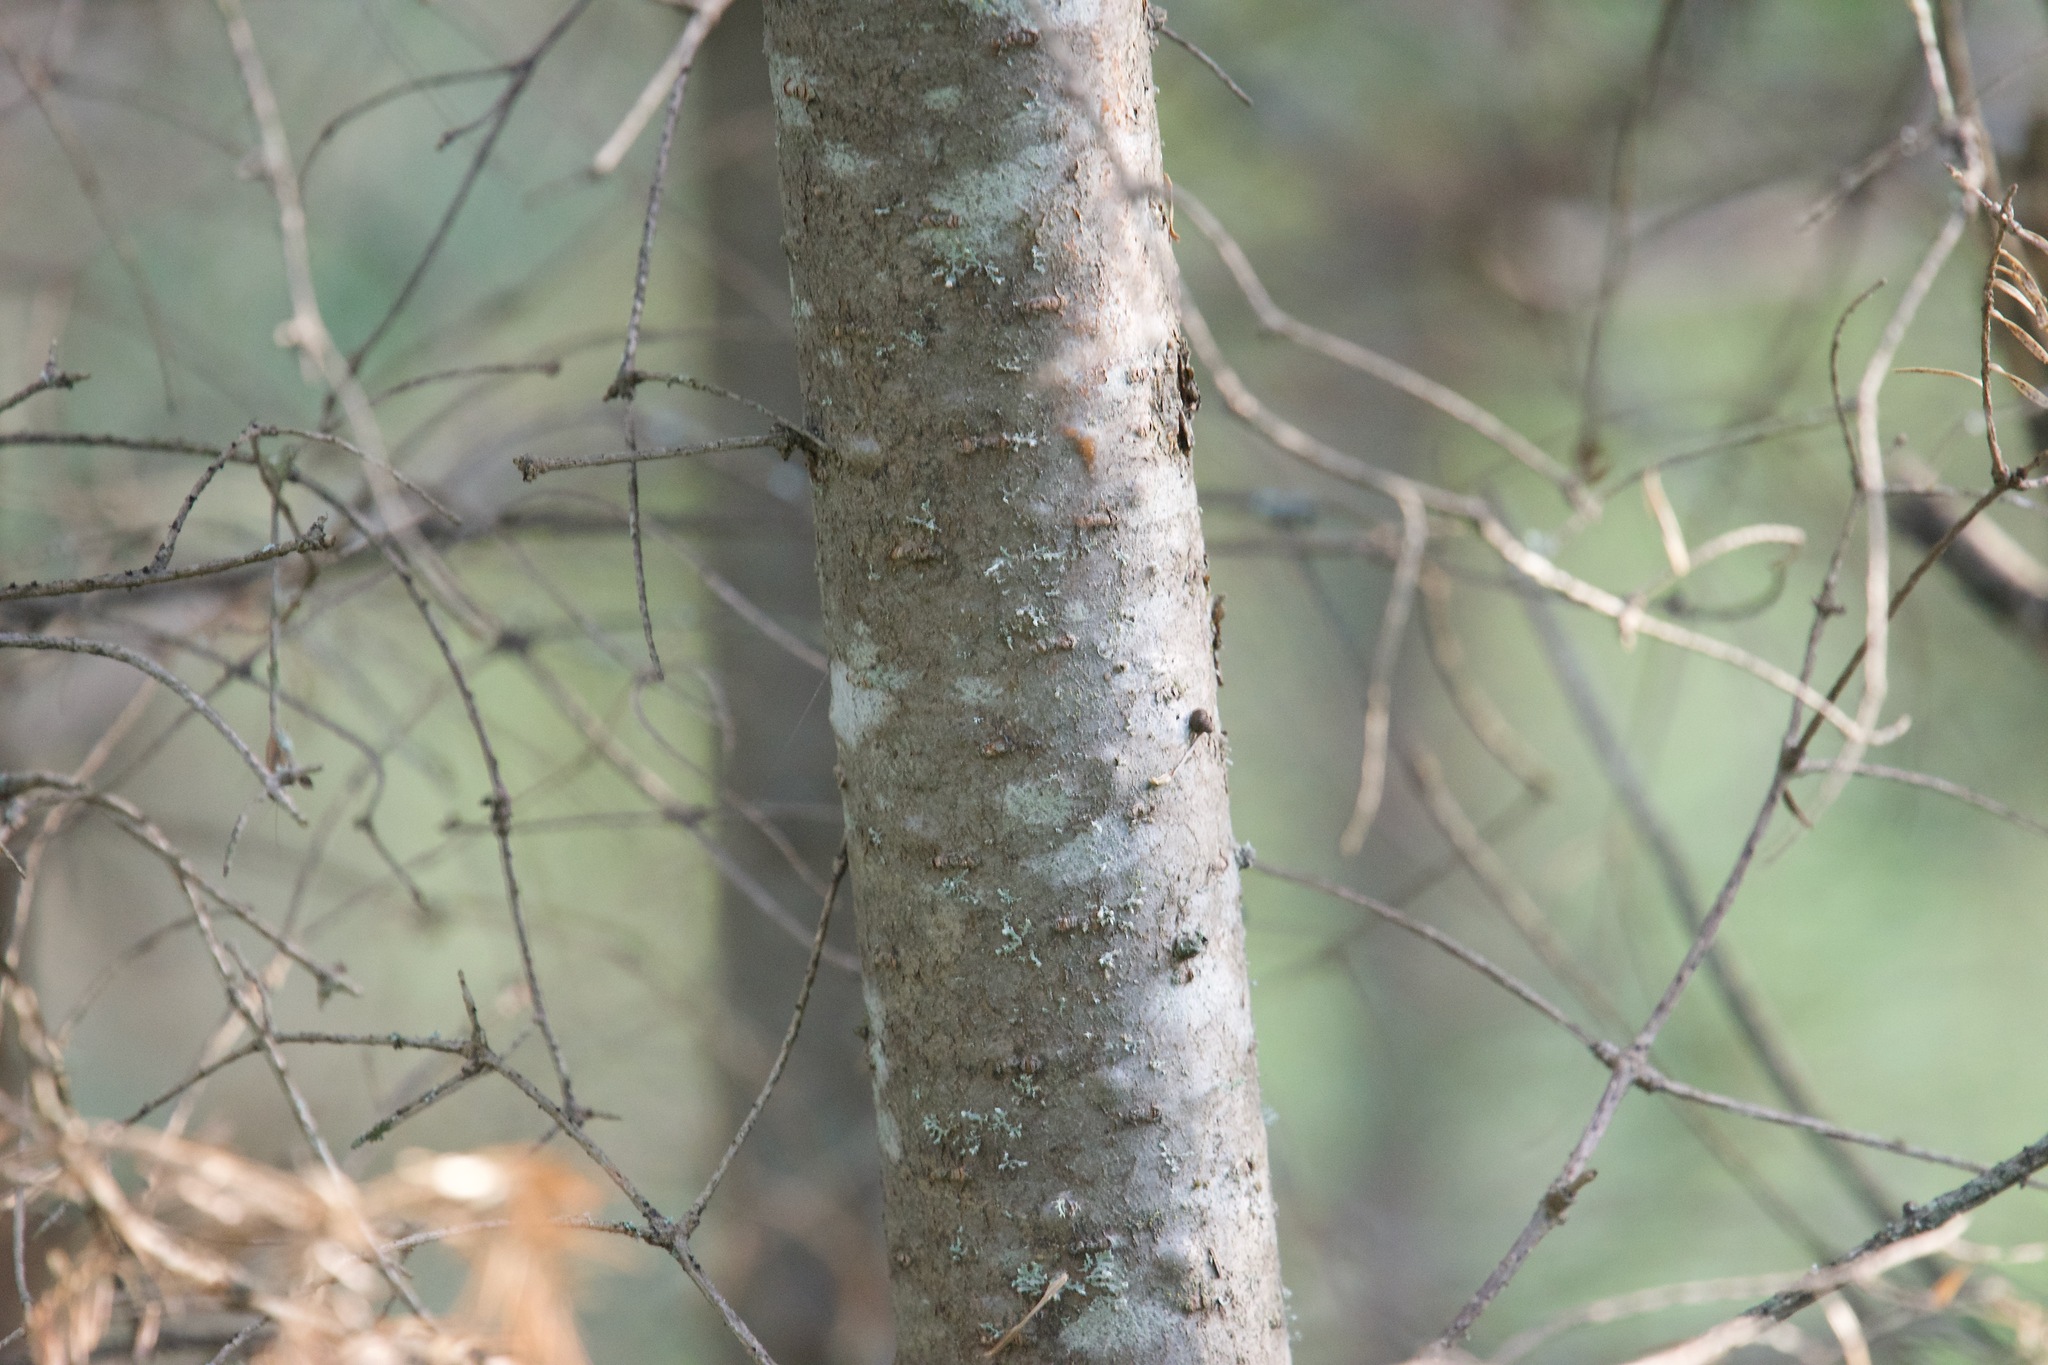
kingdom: Plantae
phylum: Tracheophyta
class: Pinopsida
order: Pinales
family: Pinaceae
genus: Abies
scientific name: Abies balsamea
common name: Balsam fir
